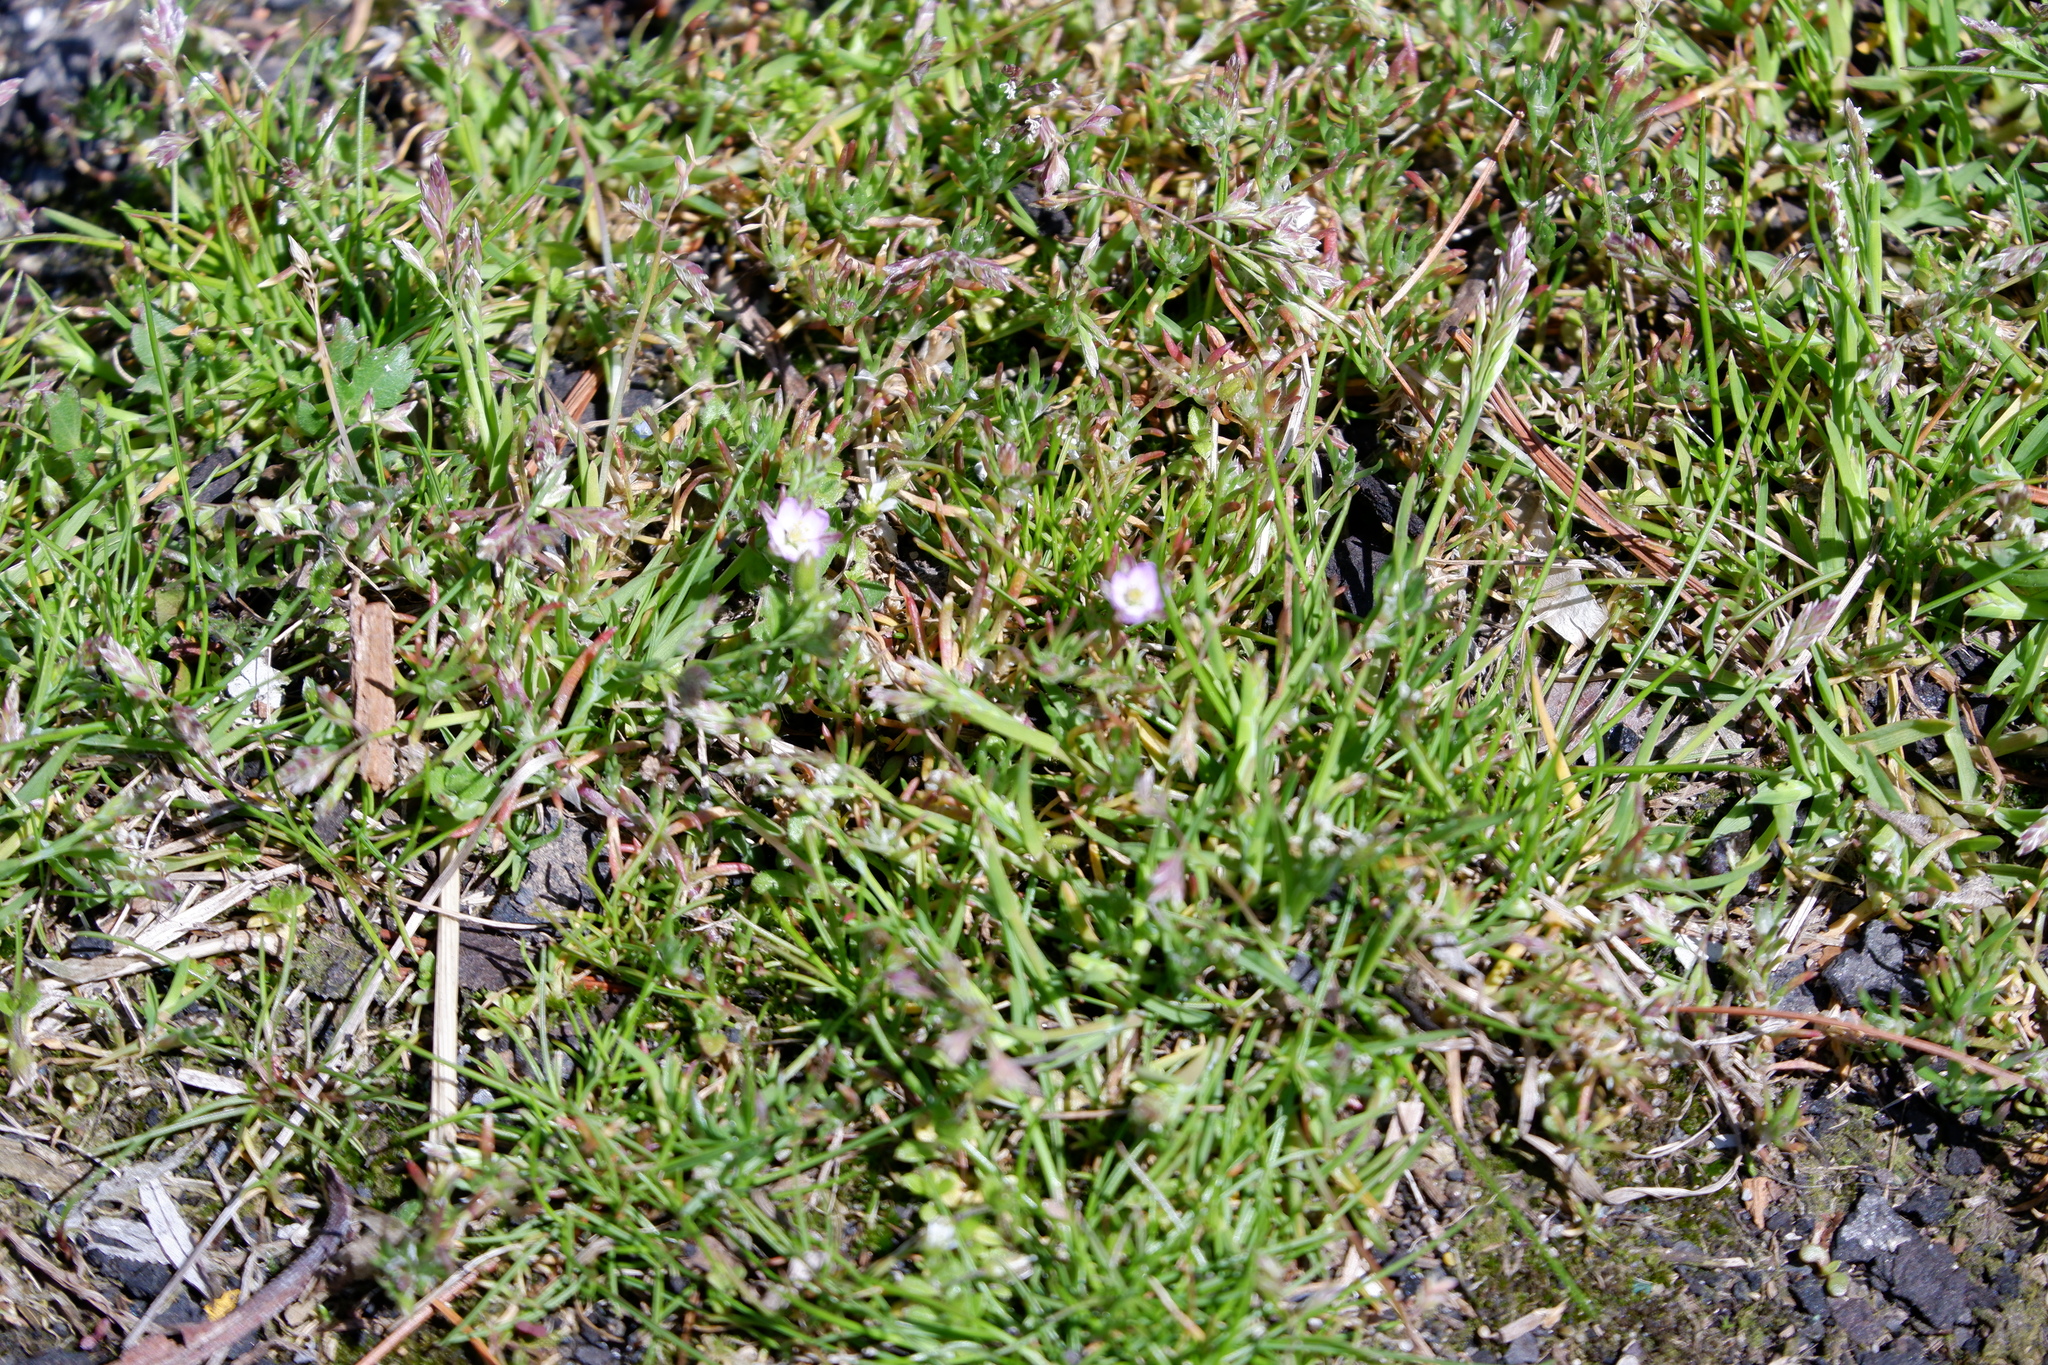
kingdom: Plantae
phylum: Tracheophyta
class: Magnoliopsida
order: Caryophyllales
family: Caryophyllaceae
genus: Spergularia
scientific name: Spergularia rubra
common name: Red sand-spurrey
